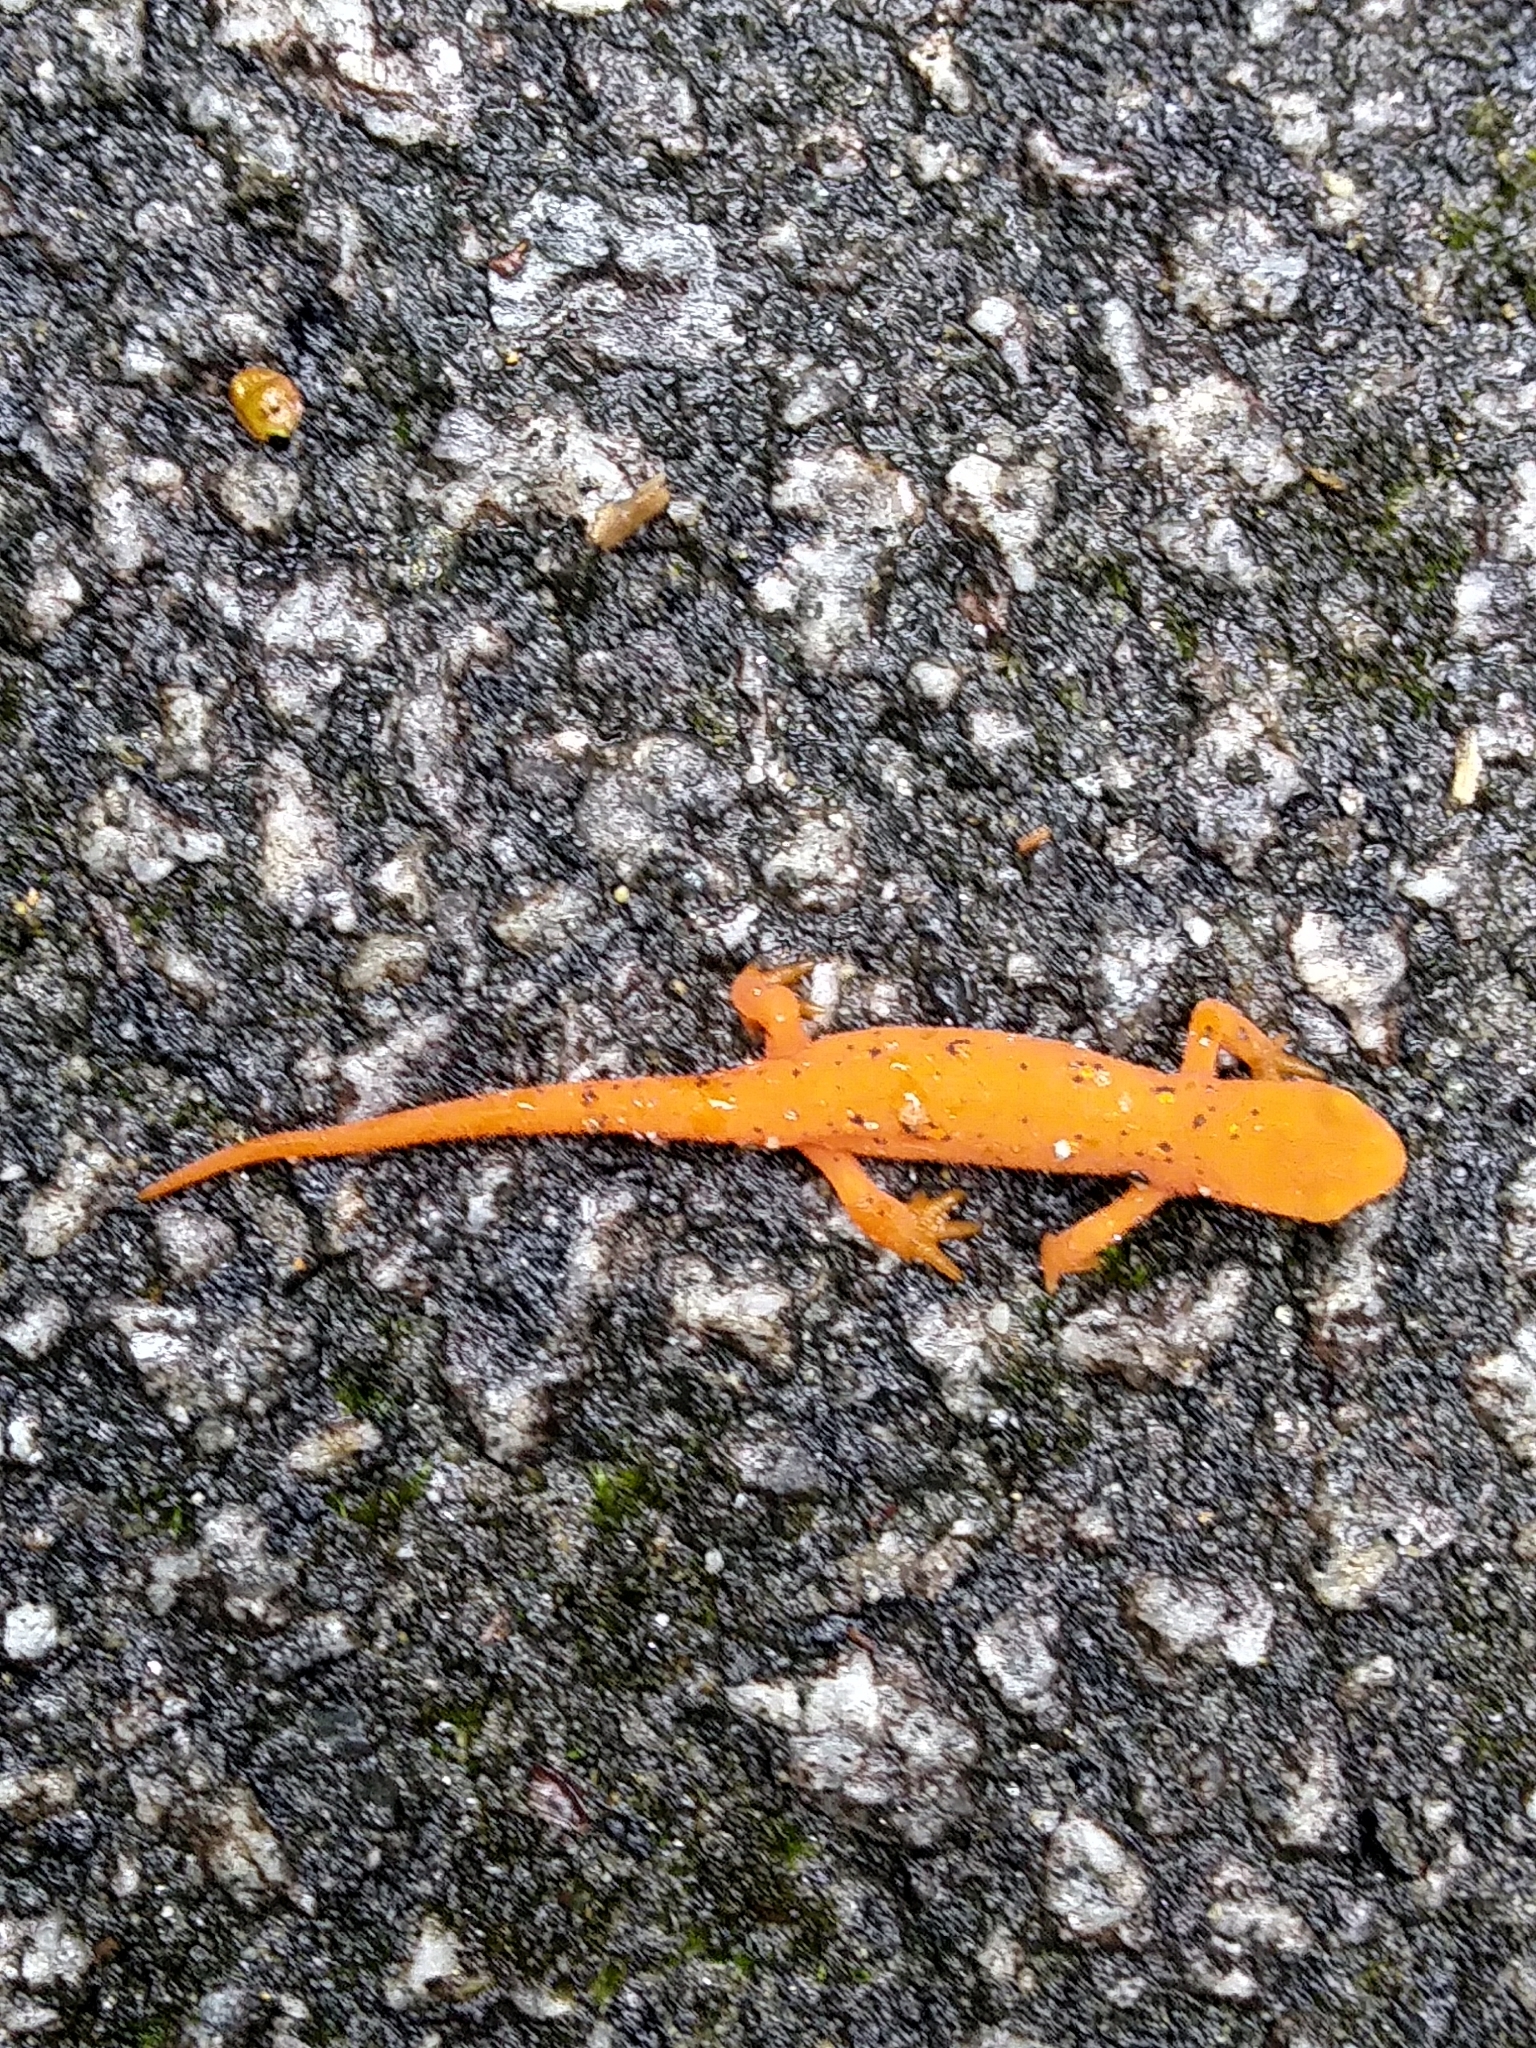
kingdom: Animalia
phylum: Chordata
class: Amphibia
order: Caudata
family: Salamandridae
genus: Notophthalmus
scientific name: Notophthalmus viridescens
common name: Eastern newt
